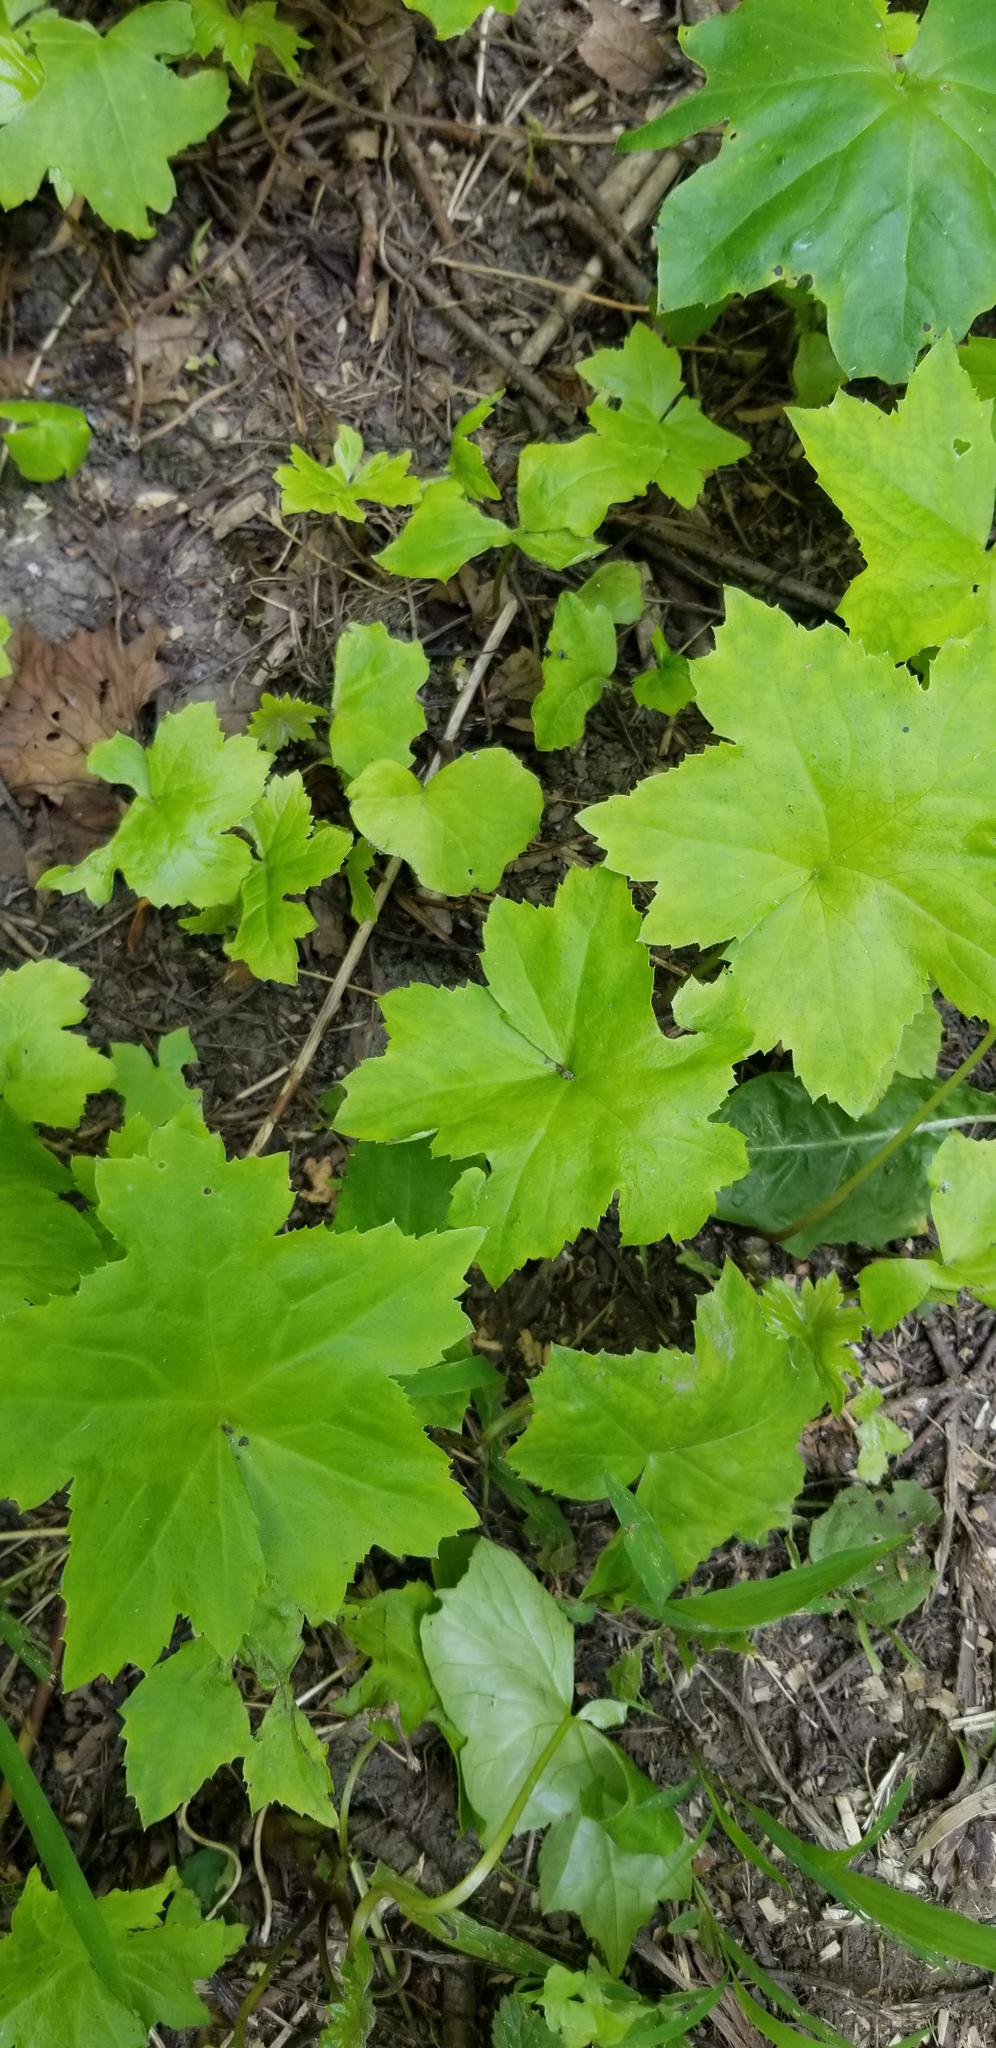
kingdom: Plantae
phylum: Tracheophyta
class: Magnoliopsida
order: Boraginales
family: Hydrophyllaceae
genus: Hydrophyllum
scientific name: Hydrophyllum canadense
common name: Canada waterleaf
